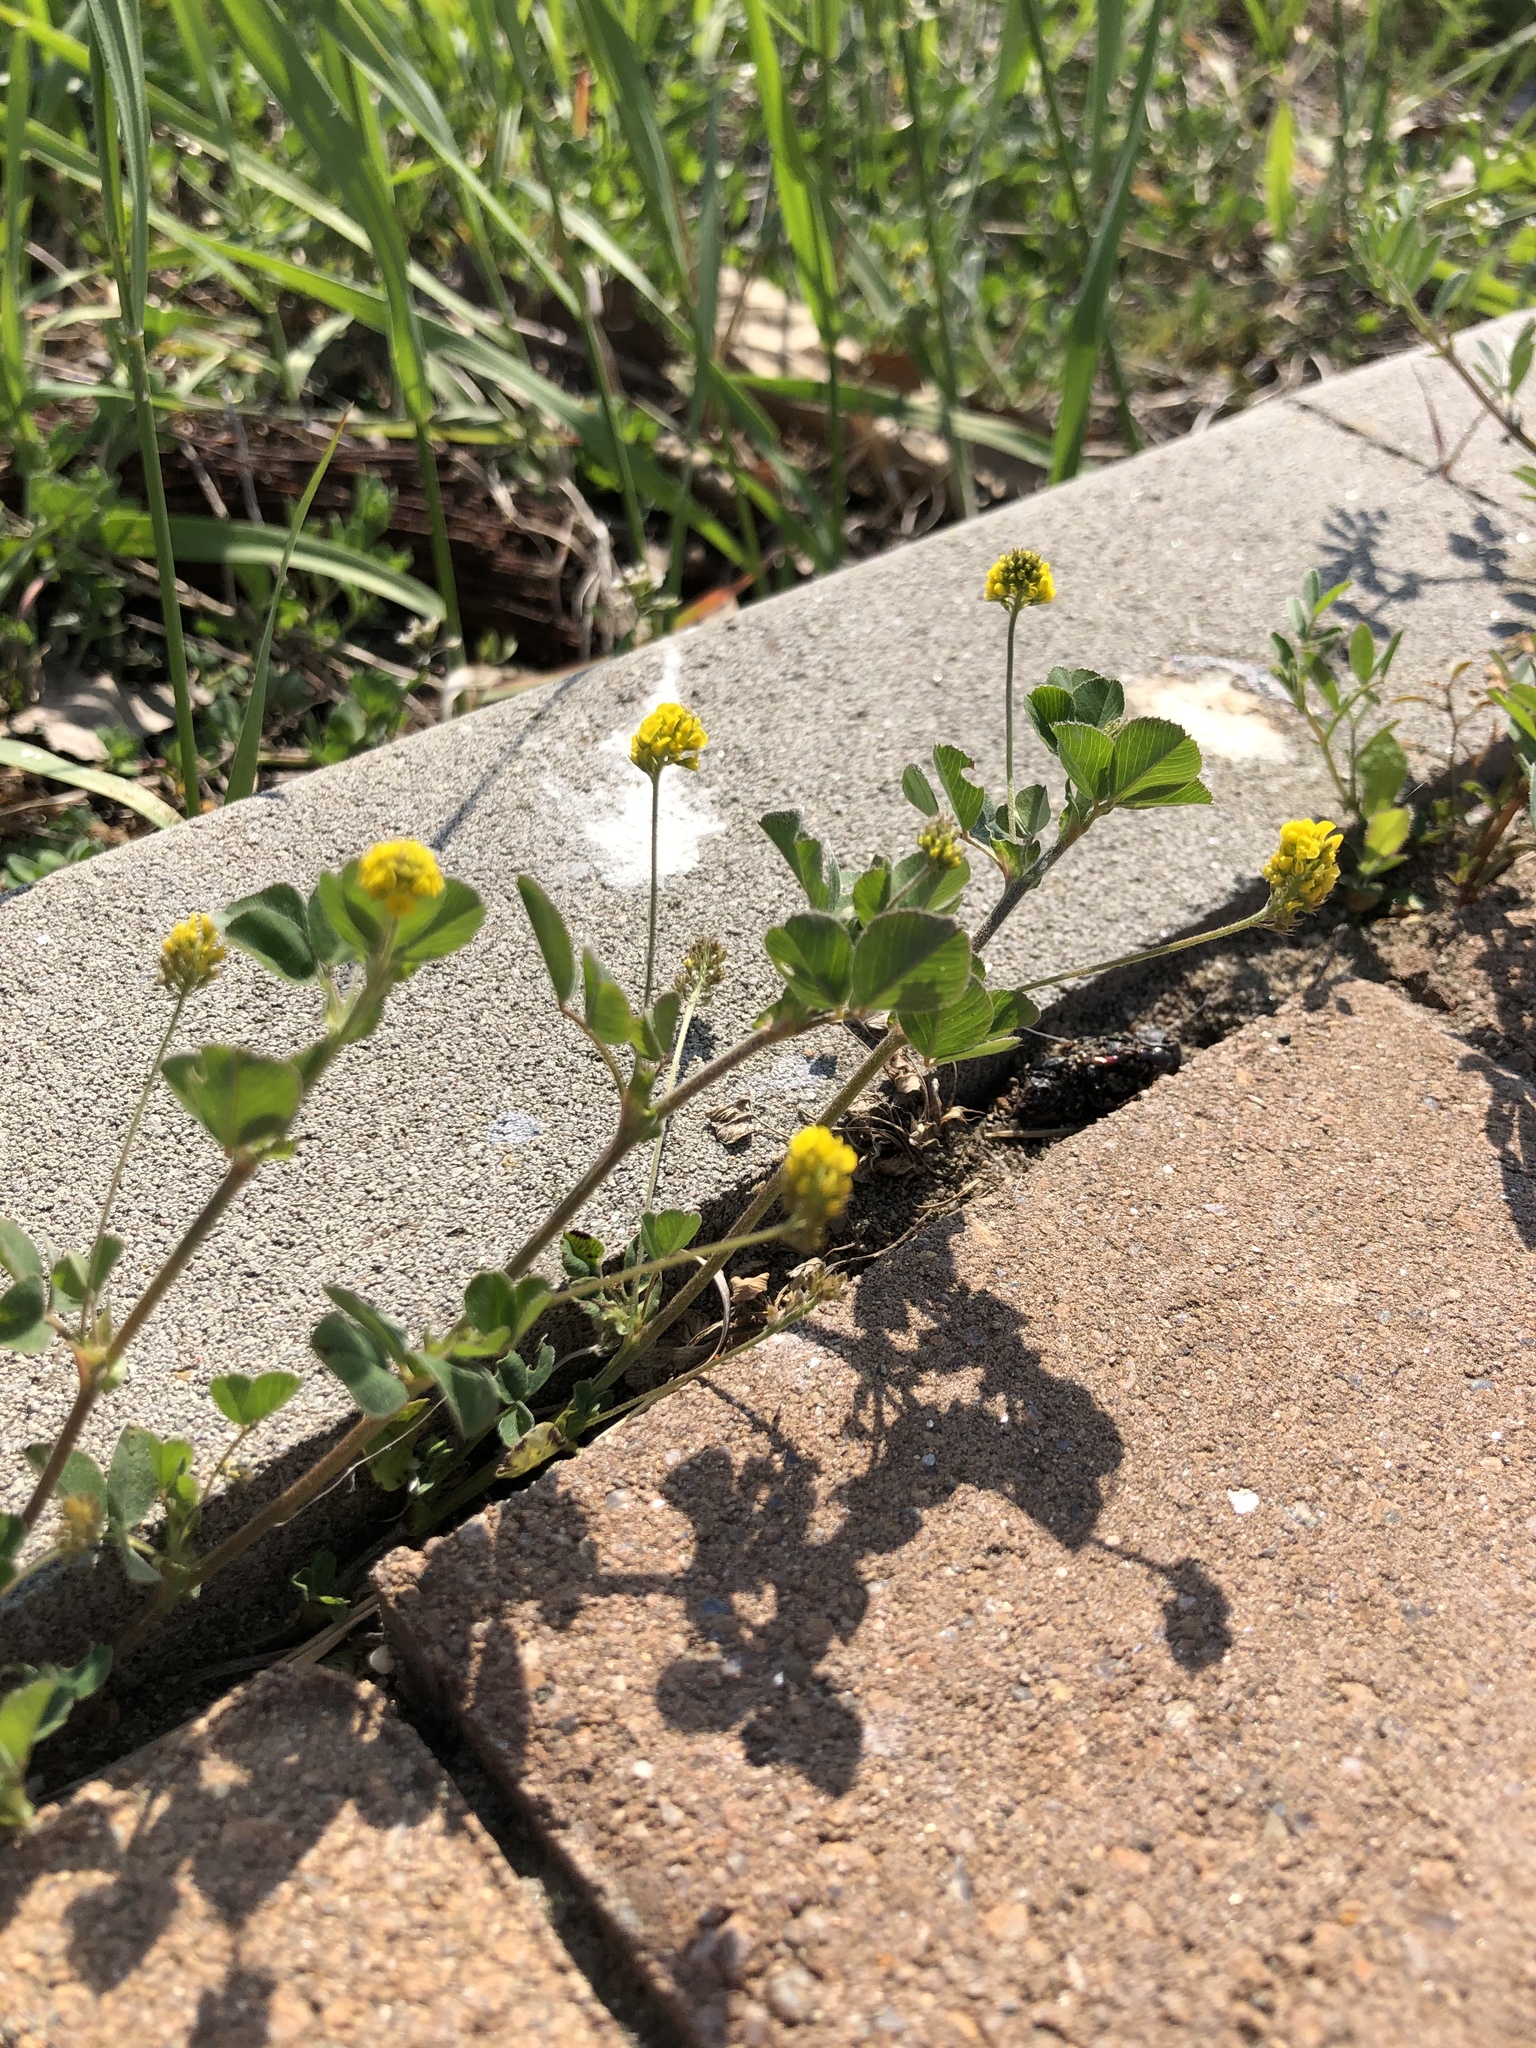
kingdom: Plantae
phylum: Tracheophyta
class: Magnoliopsida
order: Fabales
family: Fabaceae
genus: Medicago
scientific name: Medicago lupulina
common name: Black medick
